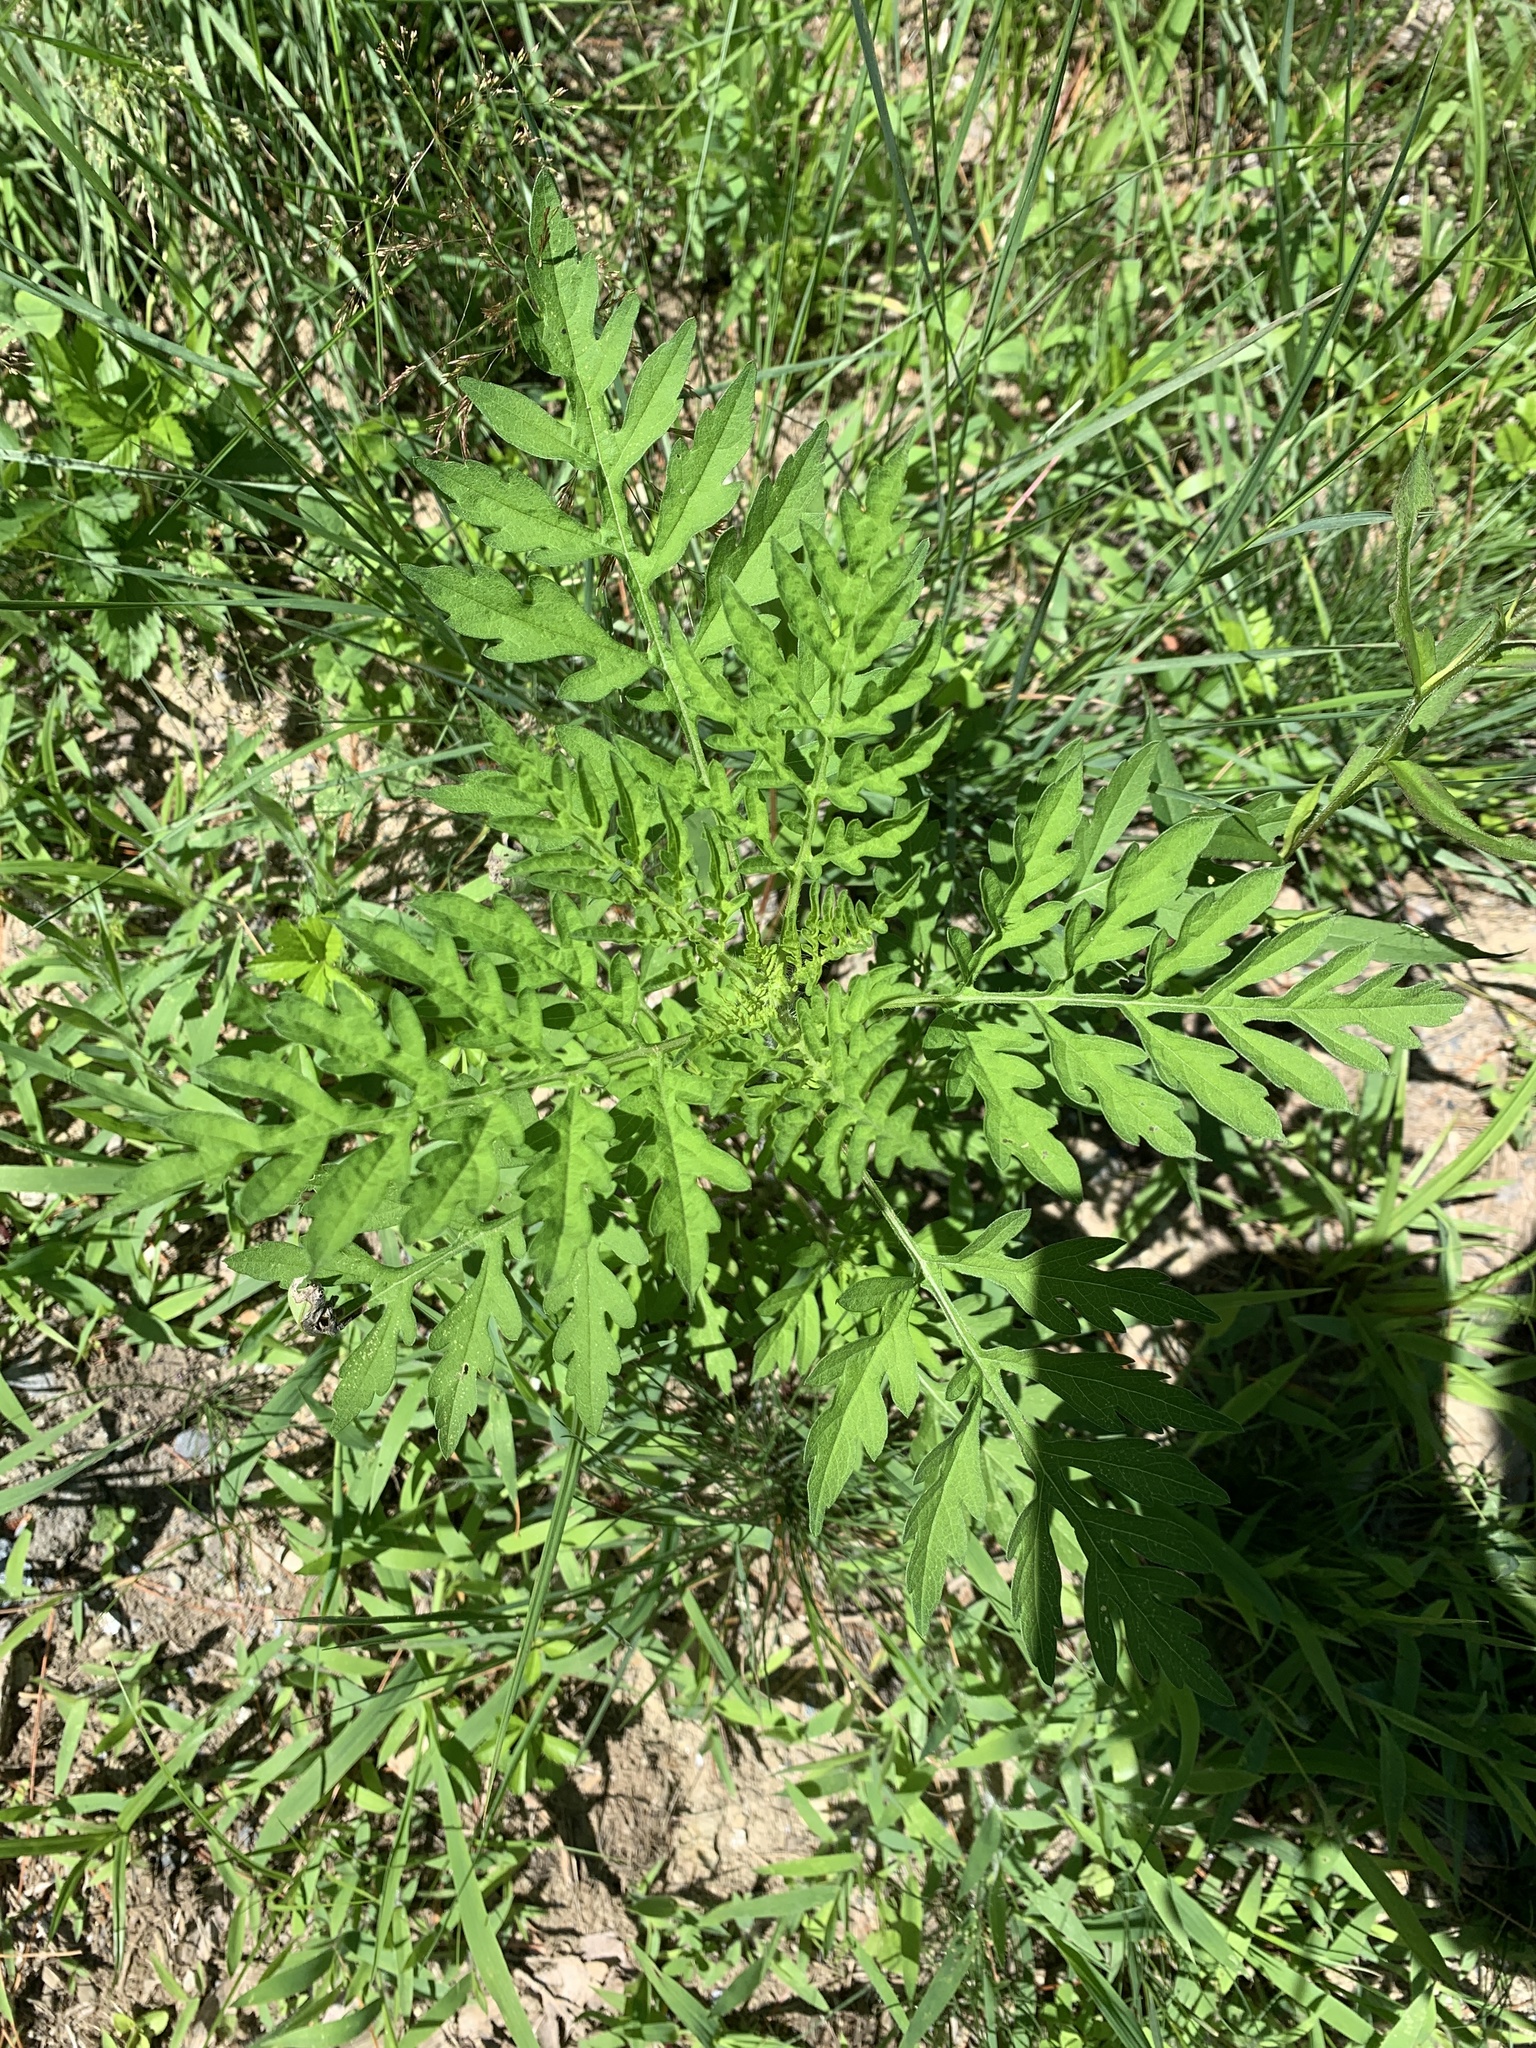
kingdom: Plantae
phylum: Tracheophyta
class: Magnoliopsida
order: Asterales
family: Asteraceae
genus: Ambrosia
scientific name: Ambrosia artemisiifolia
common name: Annual ragweed
